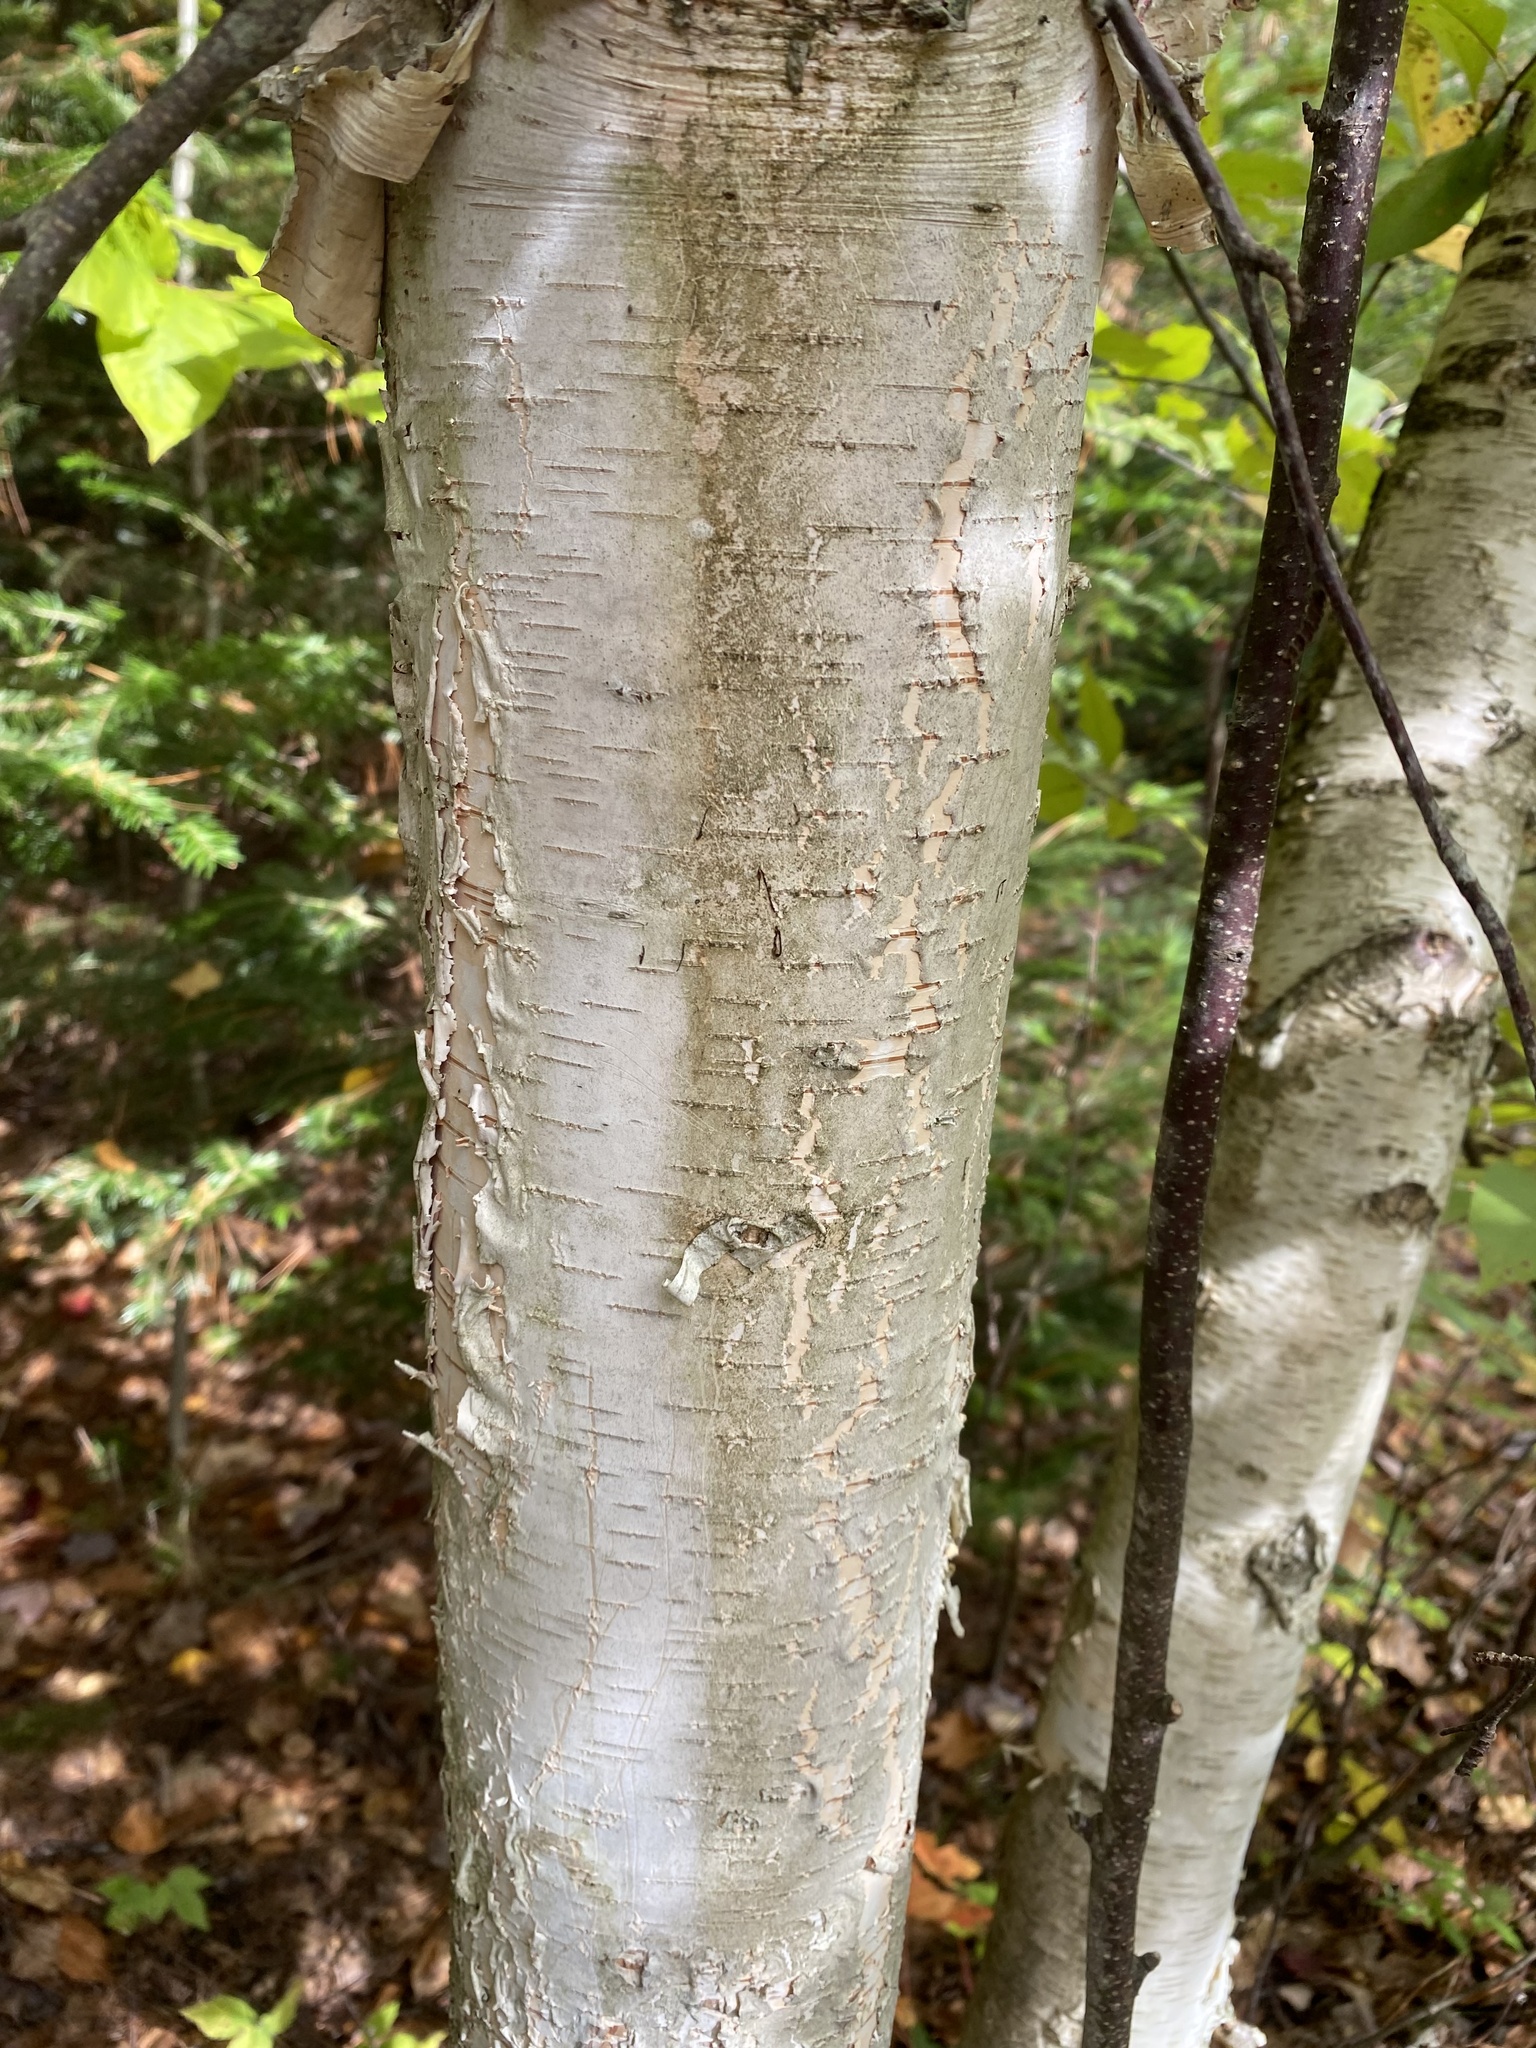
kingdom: Plantae
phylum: Tracheophyta
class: Magnoliopsida
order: Fagales
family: Betulaceae
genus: Betula
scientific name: Betula papyrifera
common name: Paper birch
